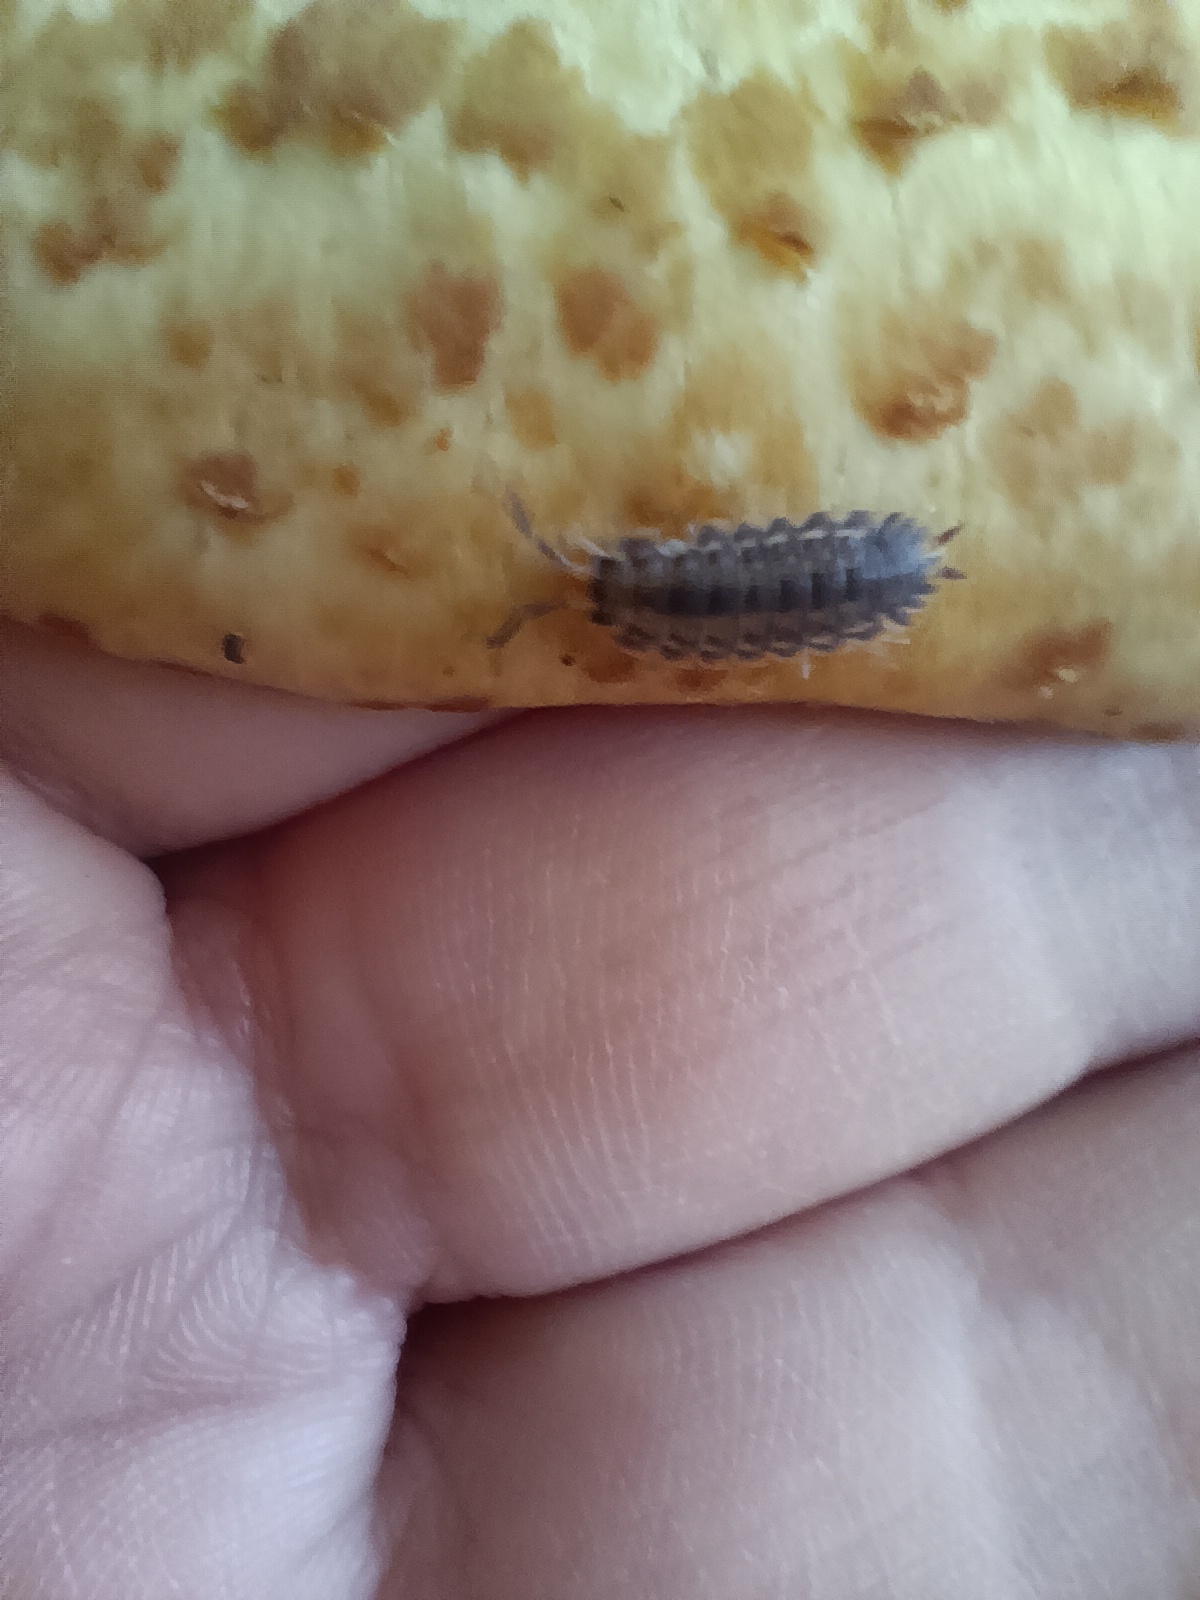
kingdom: Animalia
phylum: Arthropoda
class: Malacostraca
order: Isopoda
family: Trachelipodidae
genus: Trachelipus
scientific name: Trachelipus taborskyi
